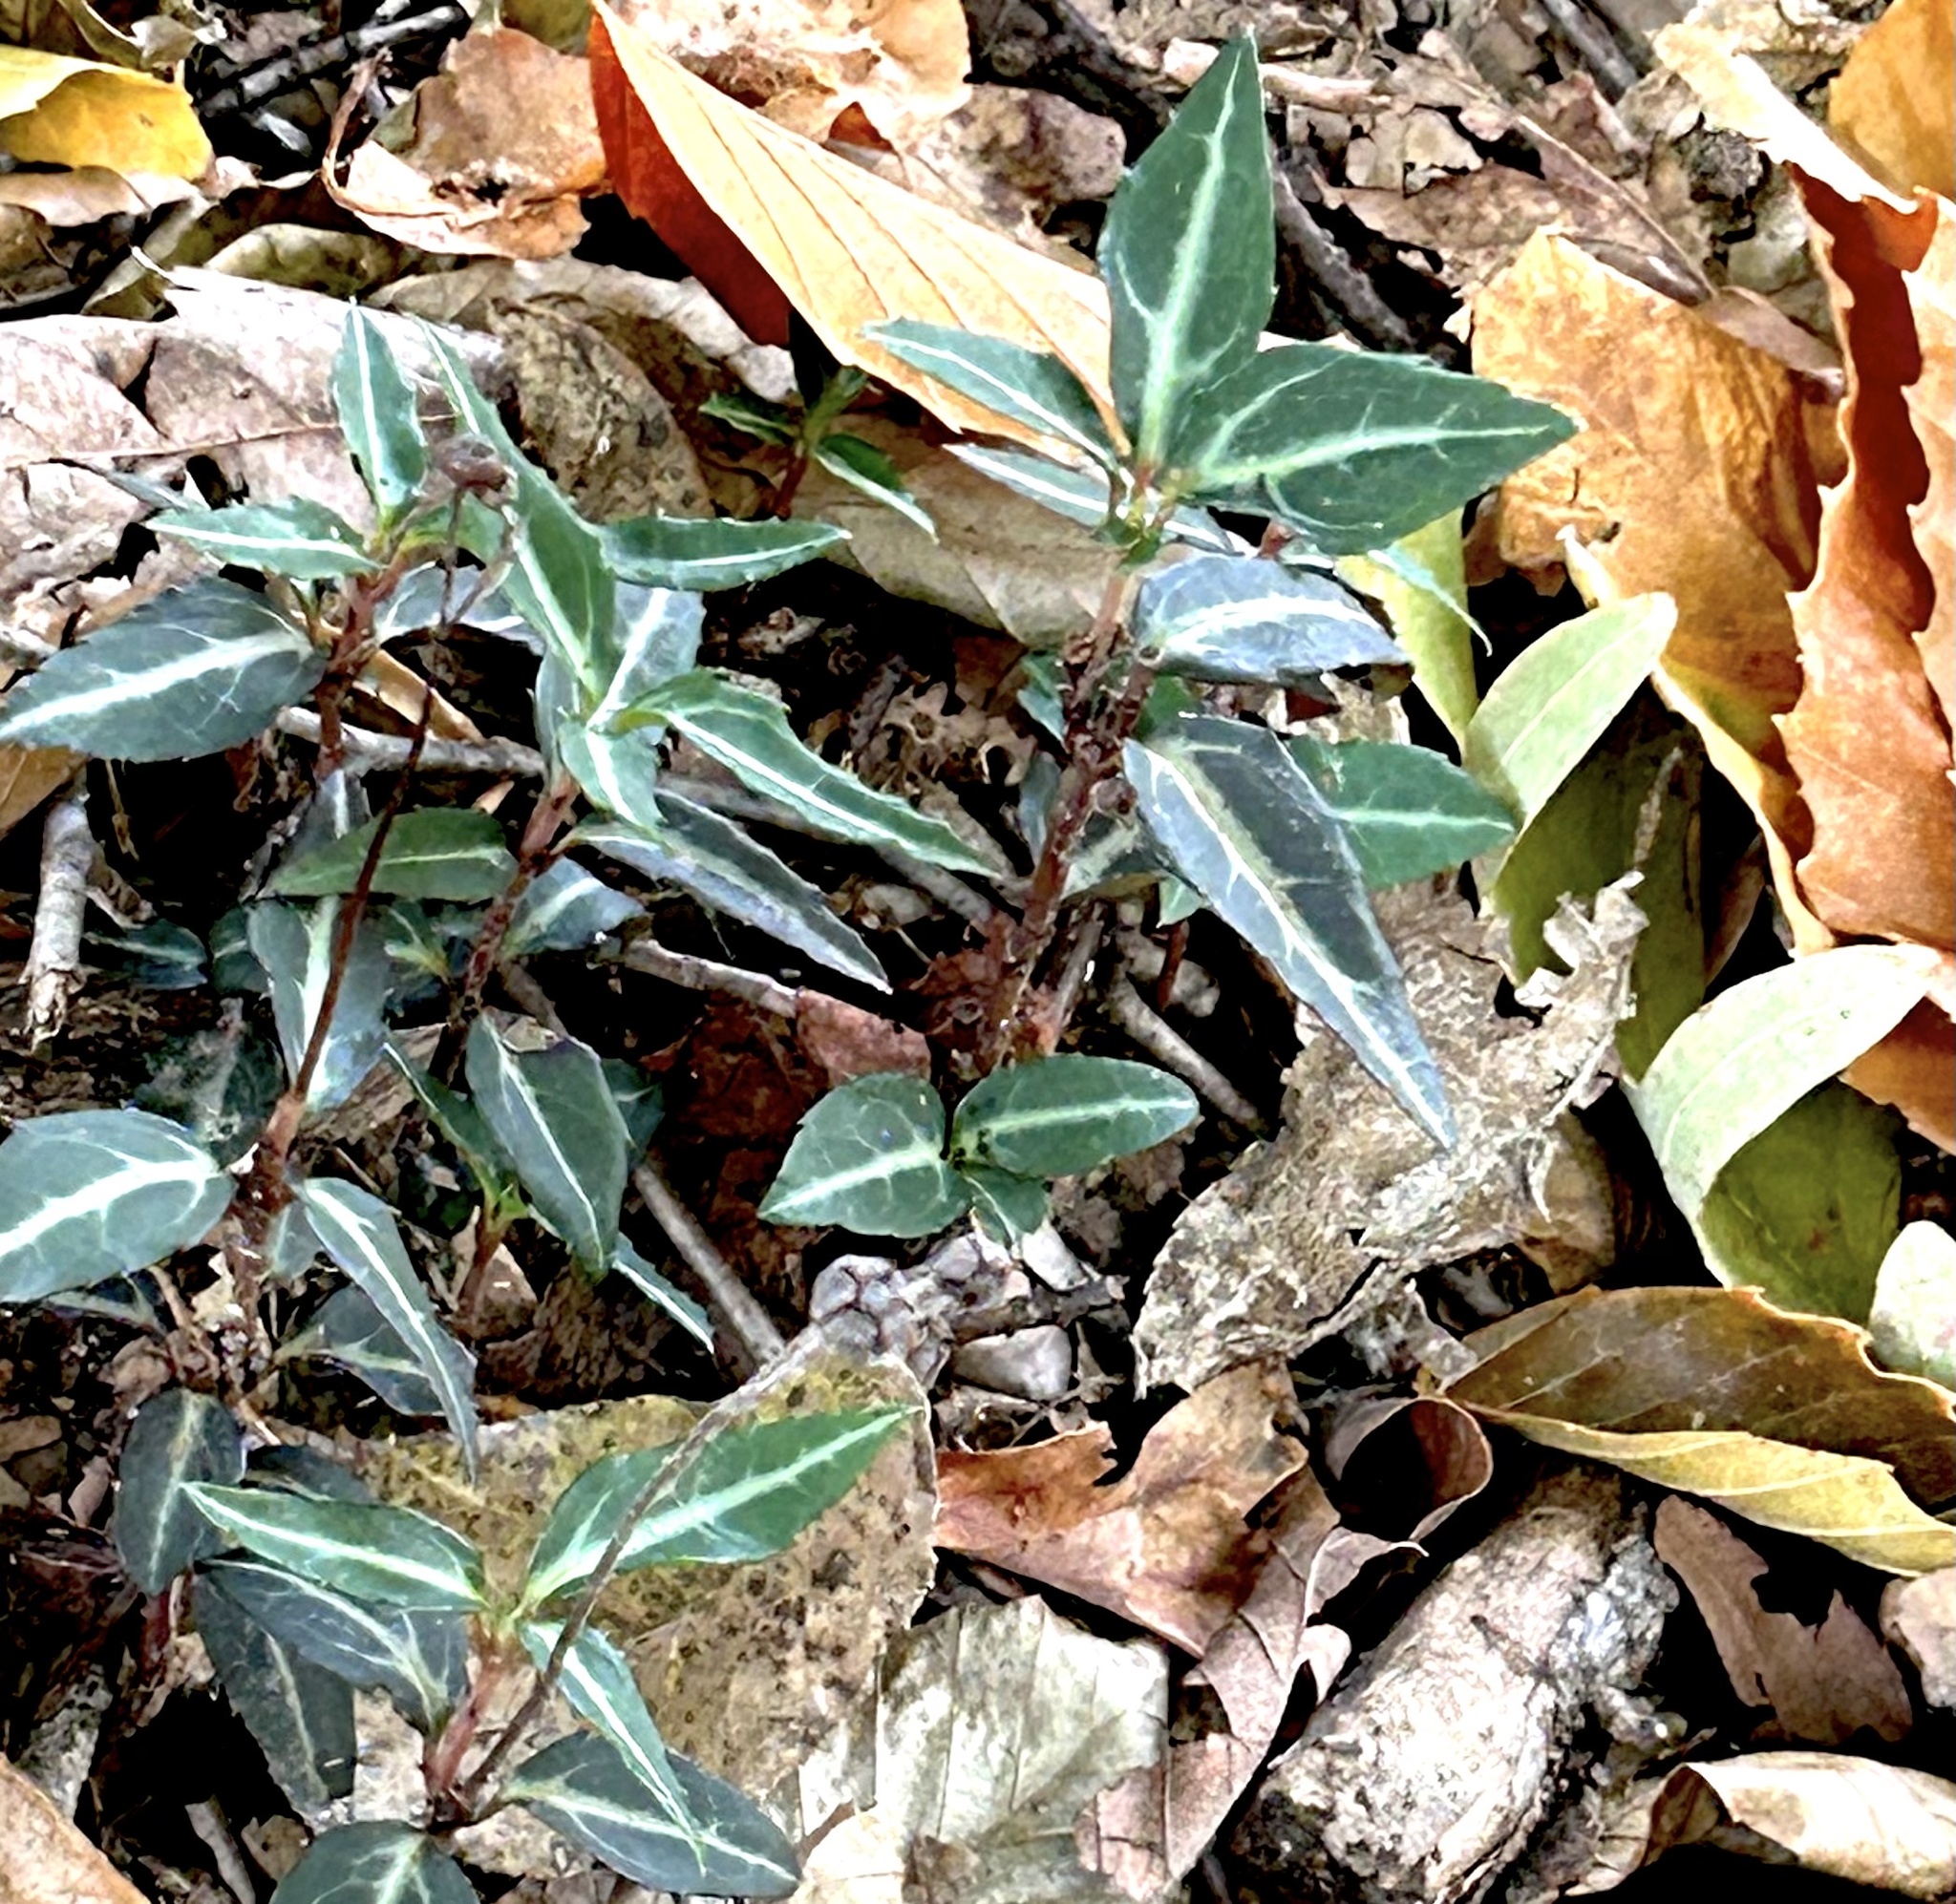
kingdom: Plantae
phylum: Tracheophyta
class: Magnoliopsida
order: Ericales
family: Ericaceae
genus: Chimaphila
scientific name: Chimaphila maculata
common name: Spotted pipsissewa
